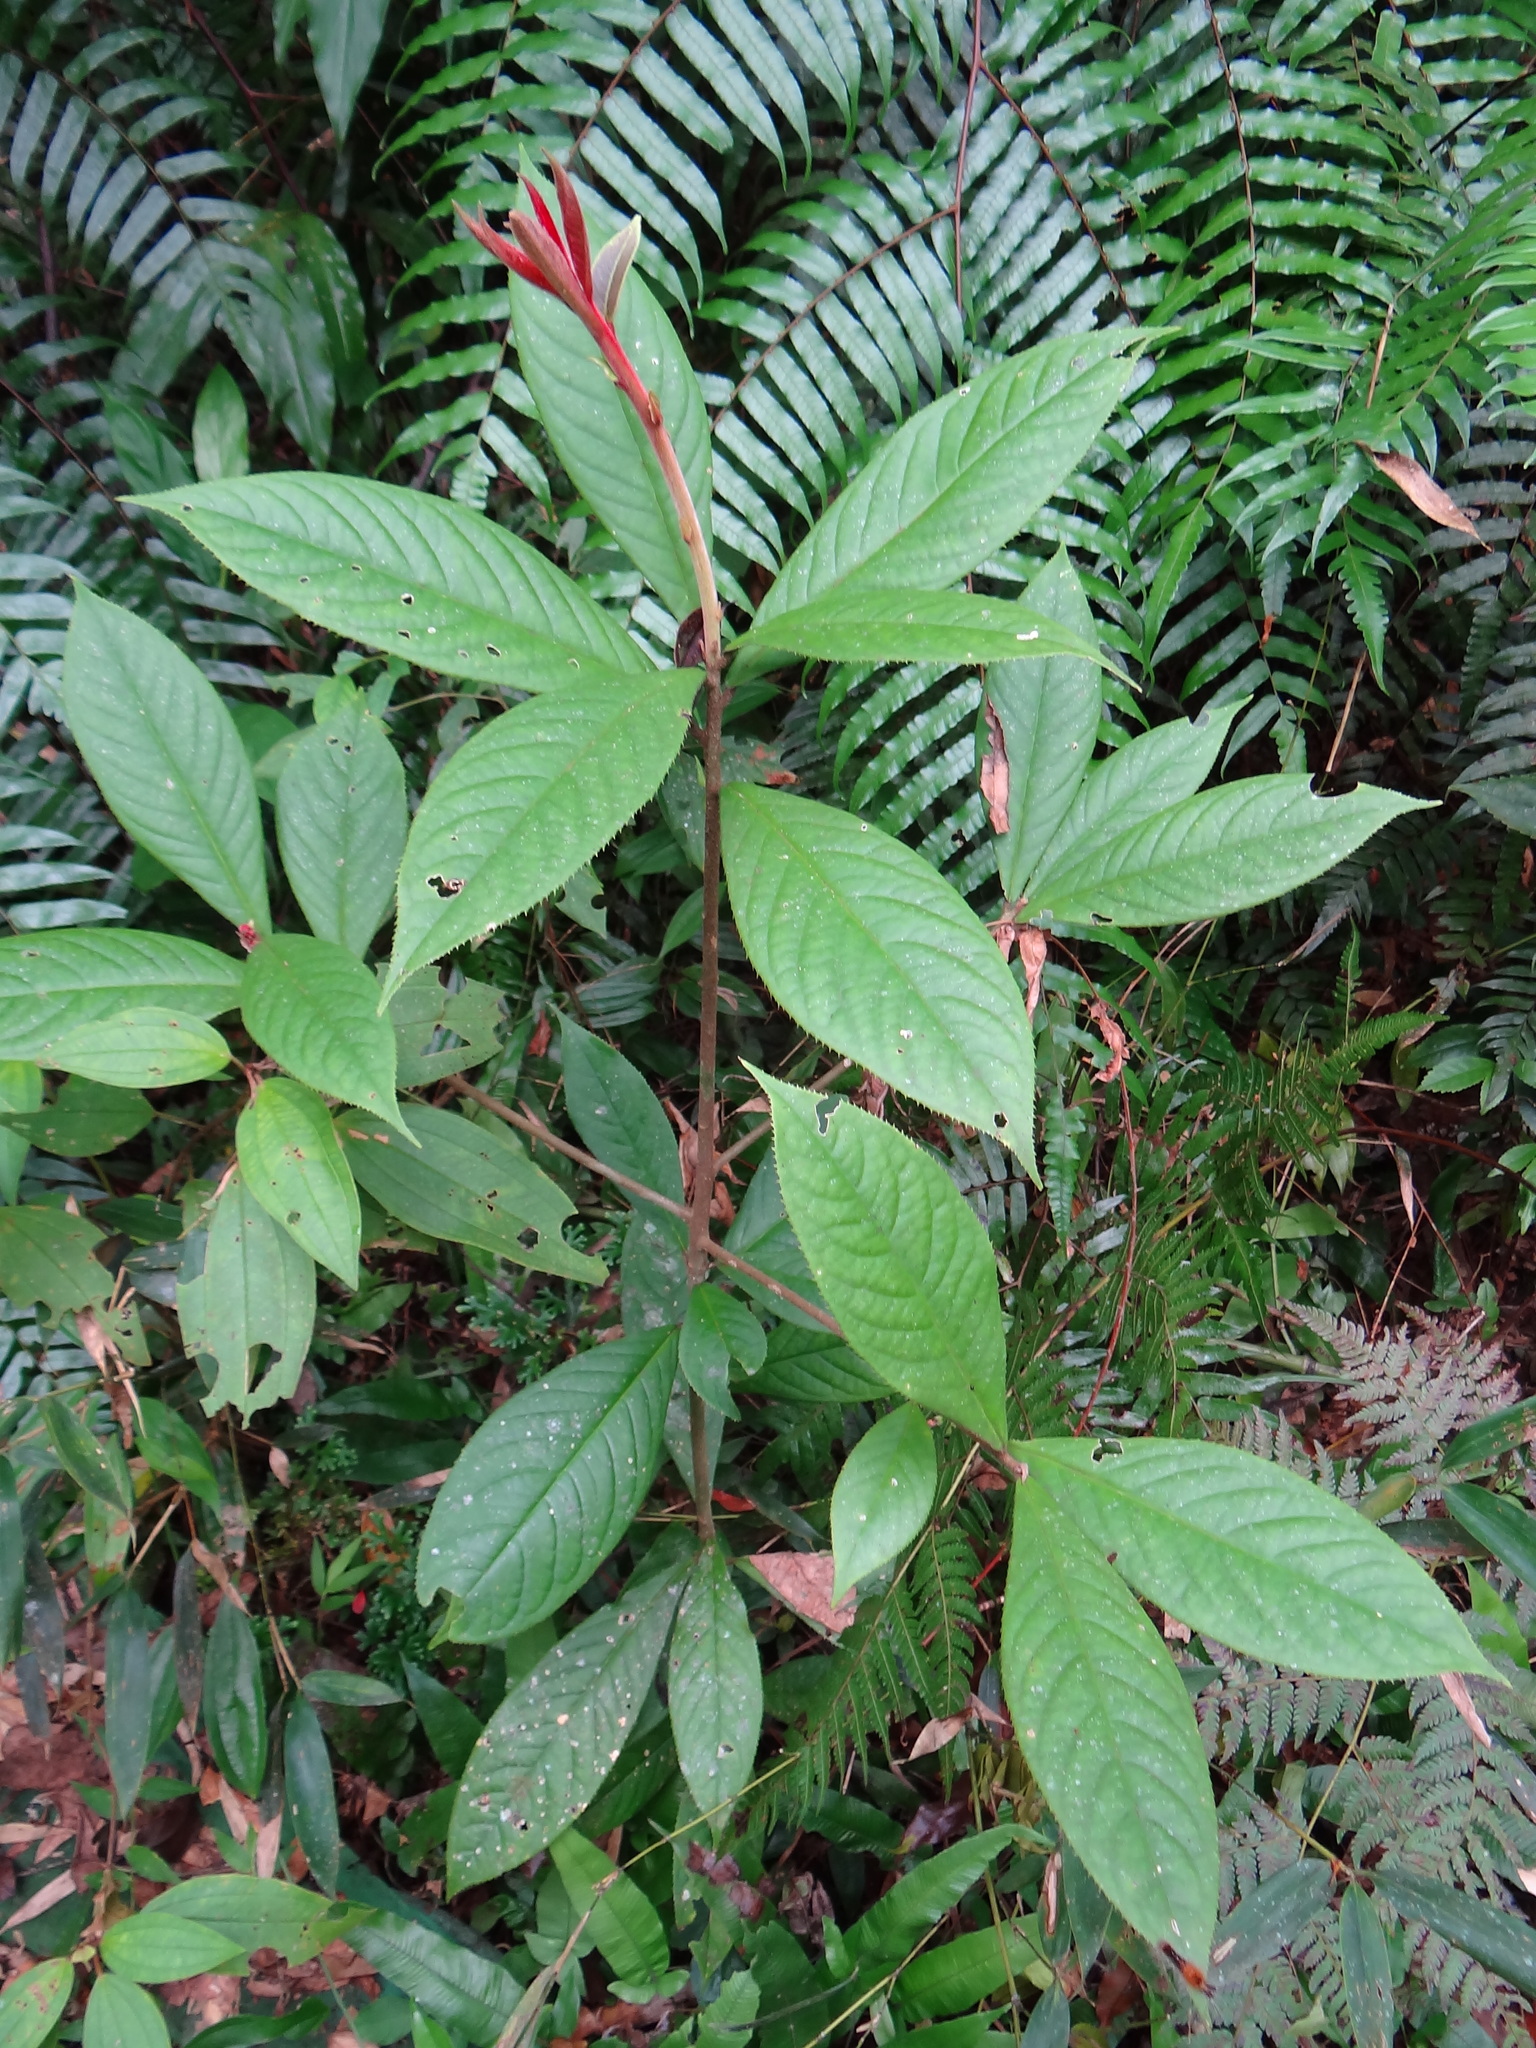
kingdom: Plantae
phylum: Tracheophyta
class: Magnoliopsida
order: Ericales
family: Symplocaceae
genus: Symplocos
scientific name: Symplocos cochinchinensis
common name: Buff hazelwood
